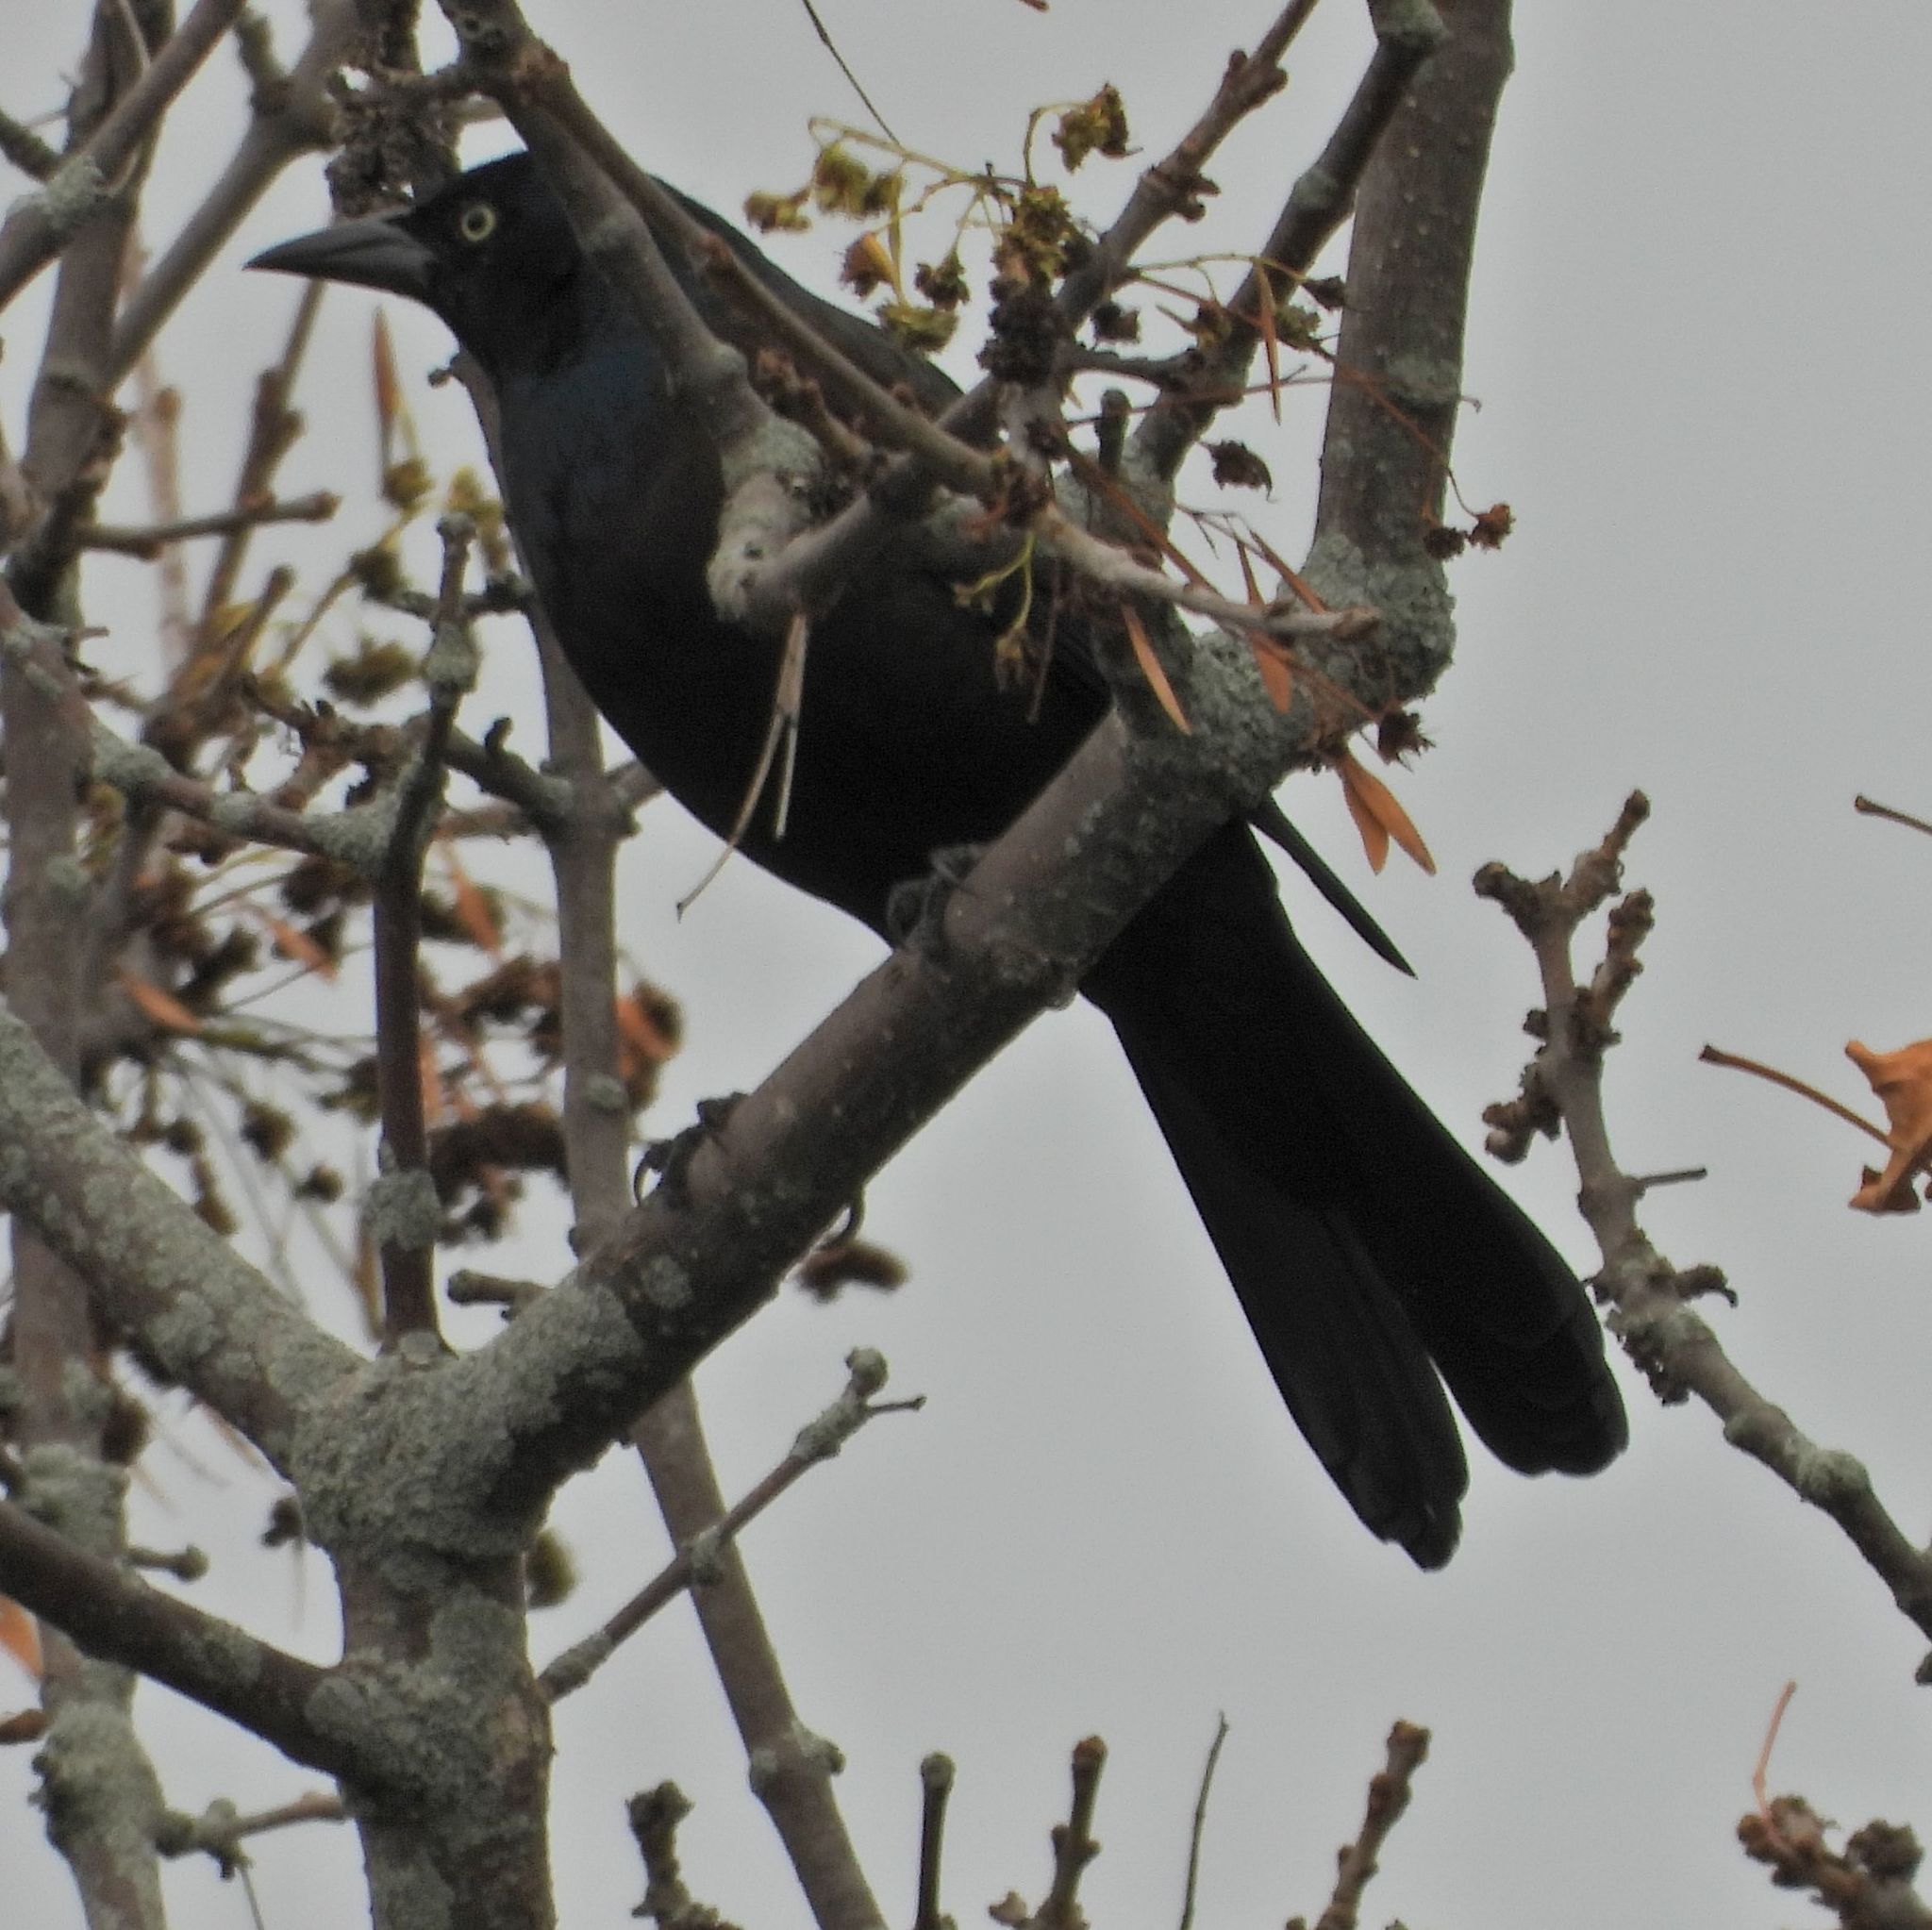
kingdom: Animalia
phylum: Chordata
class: Aves
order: Passeriformes
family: Icteridae
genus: Quiscalus
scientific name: Quiscalus quiscula
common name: Common grackle
